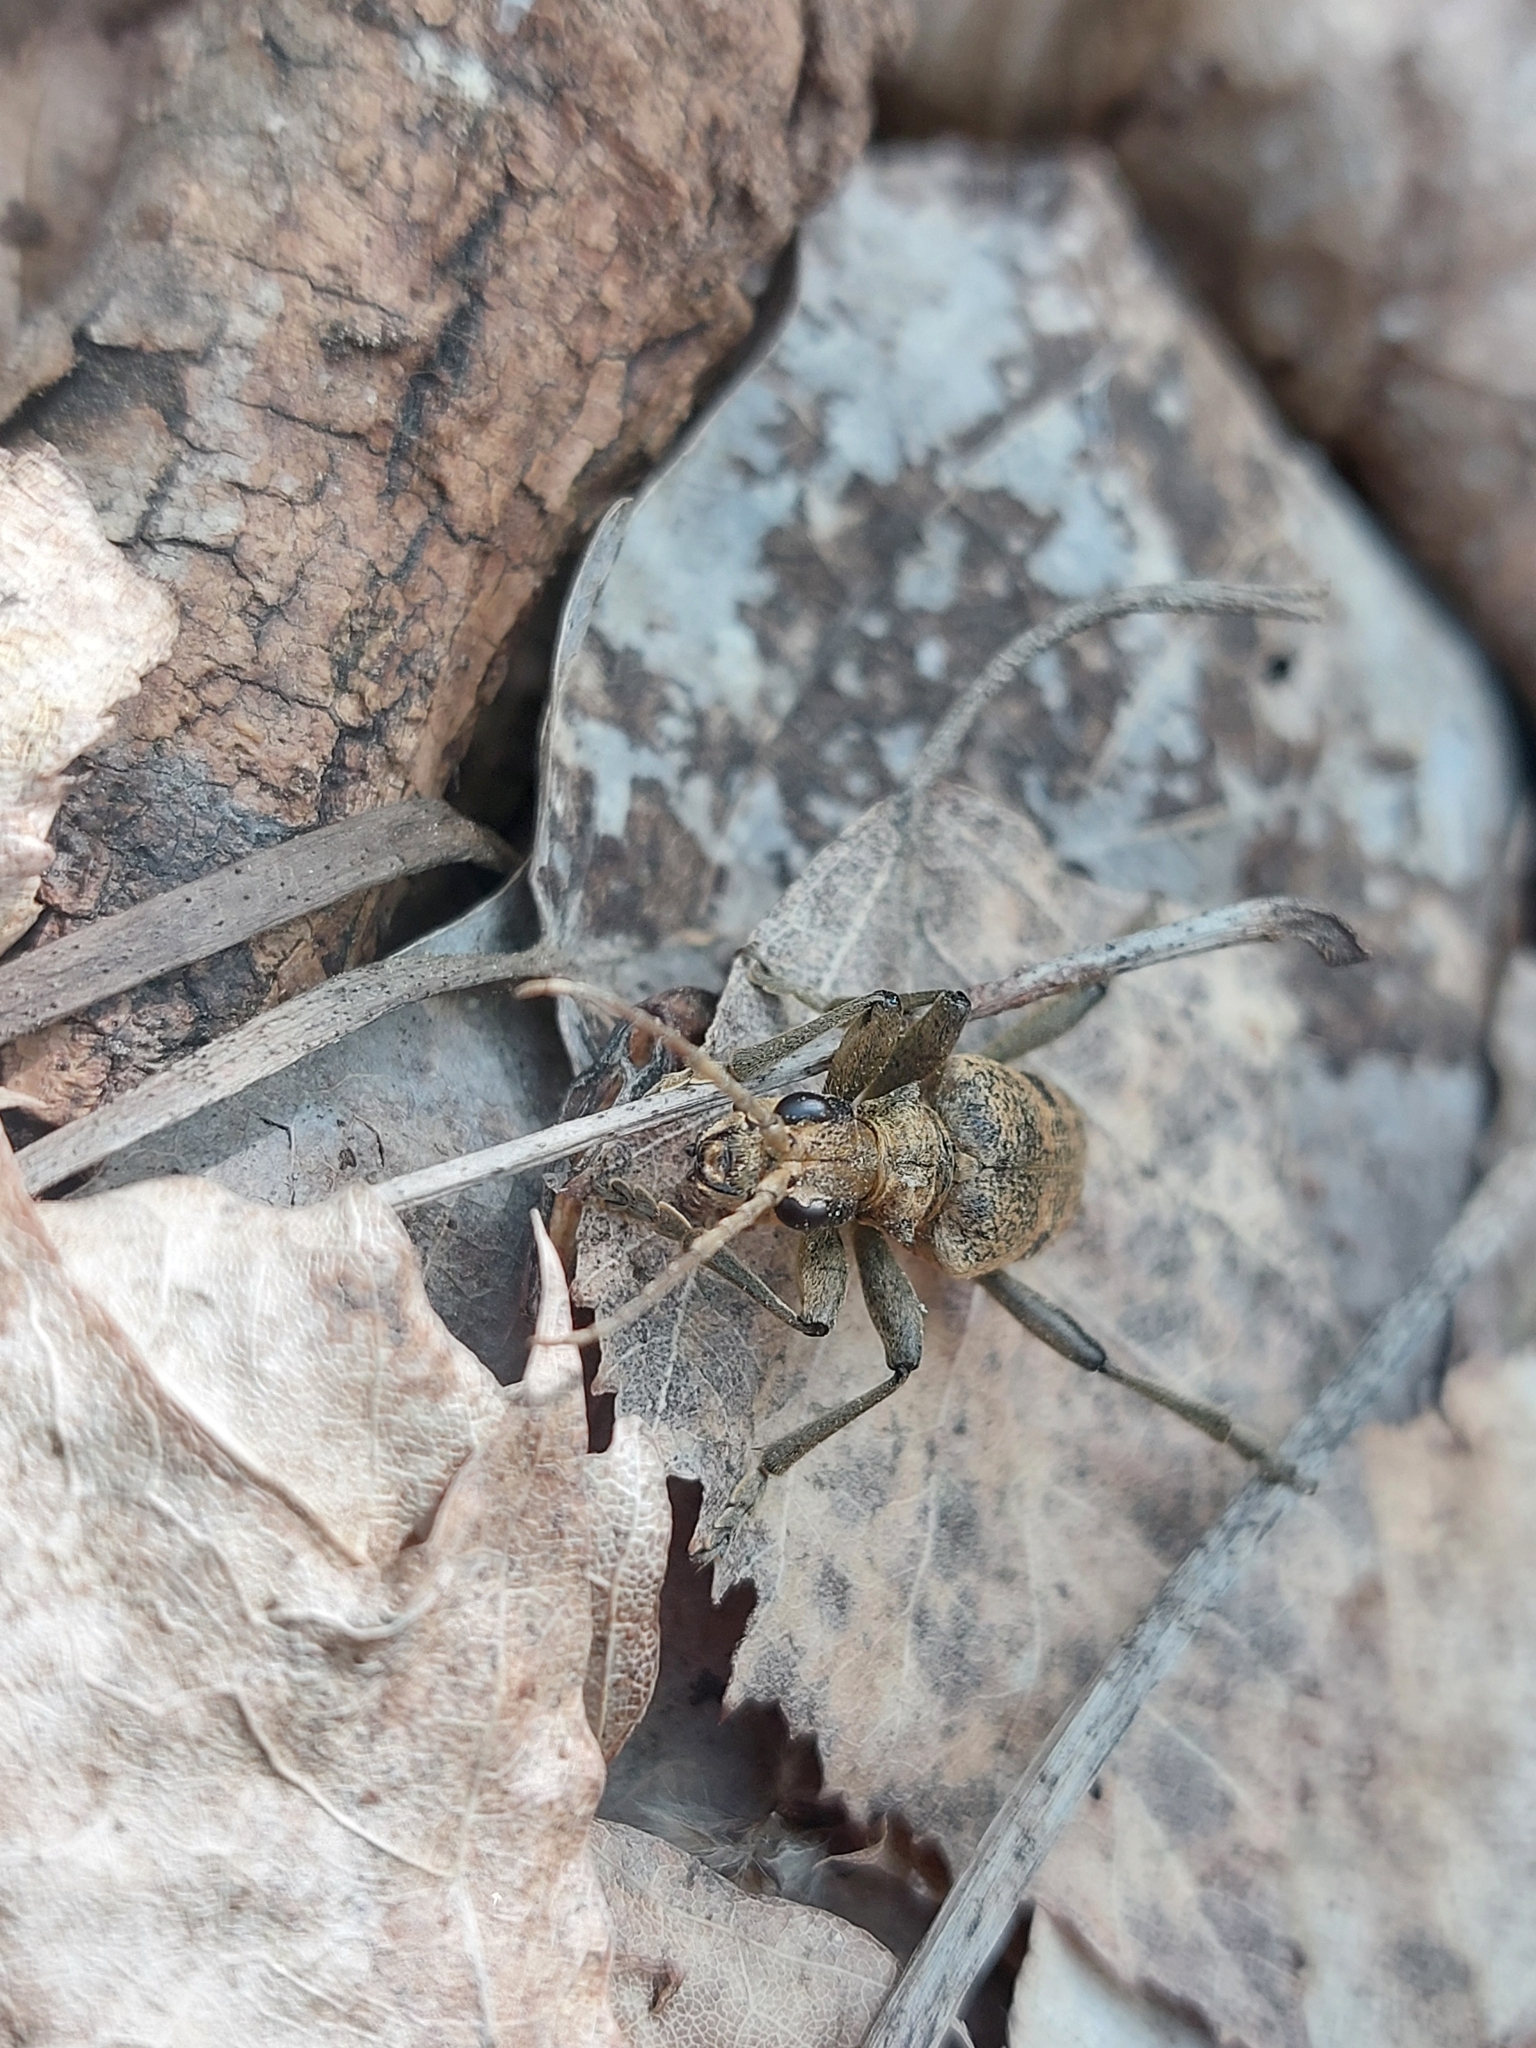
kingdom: Animalia
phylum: Arthropoda
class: Insecta
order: Coleoptera
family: Cerambycidae
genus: Rhagium
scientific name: Rhagium mordax
